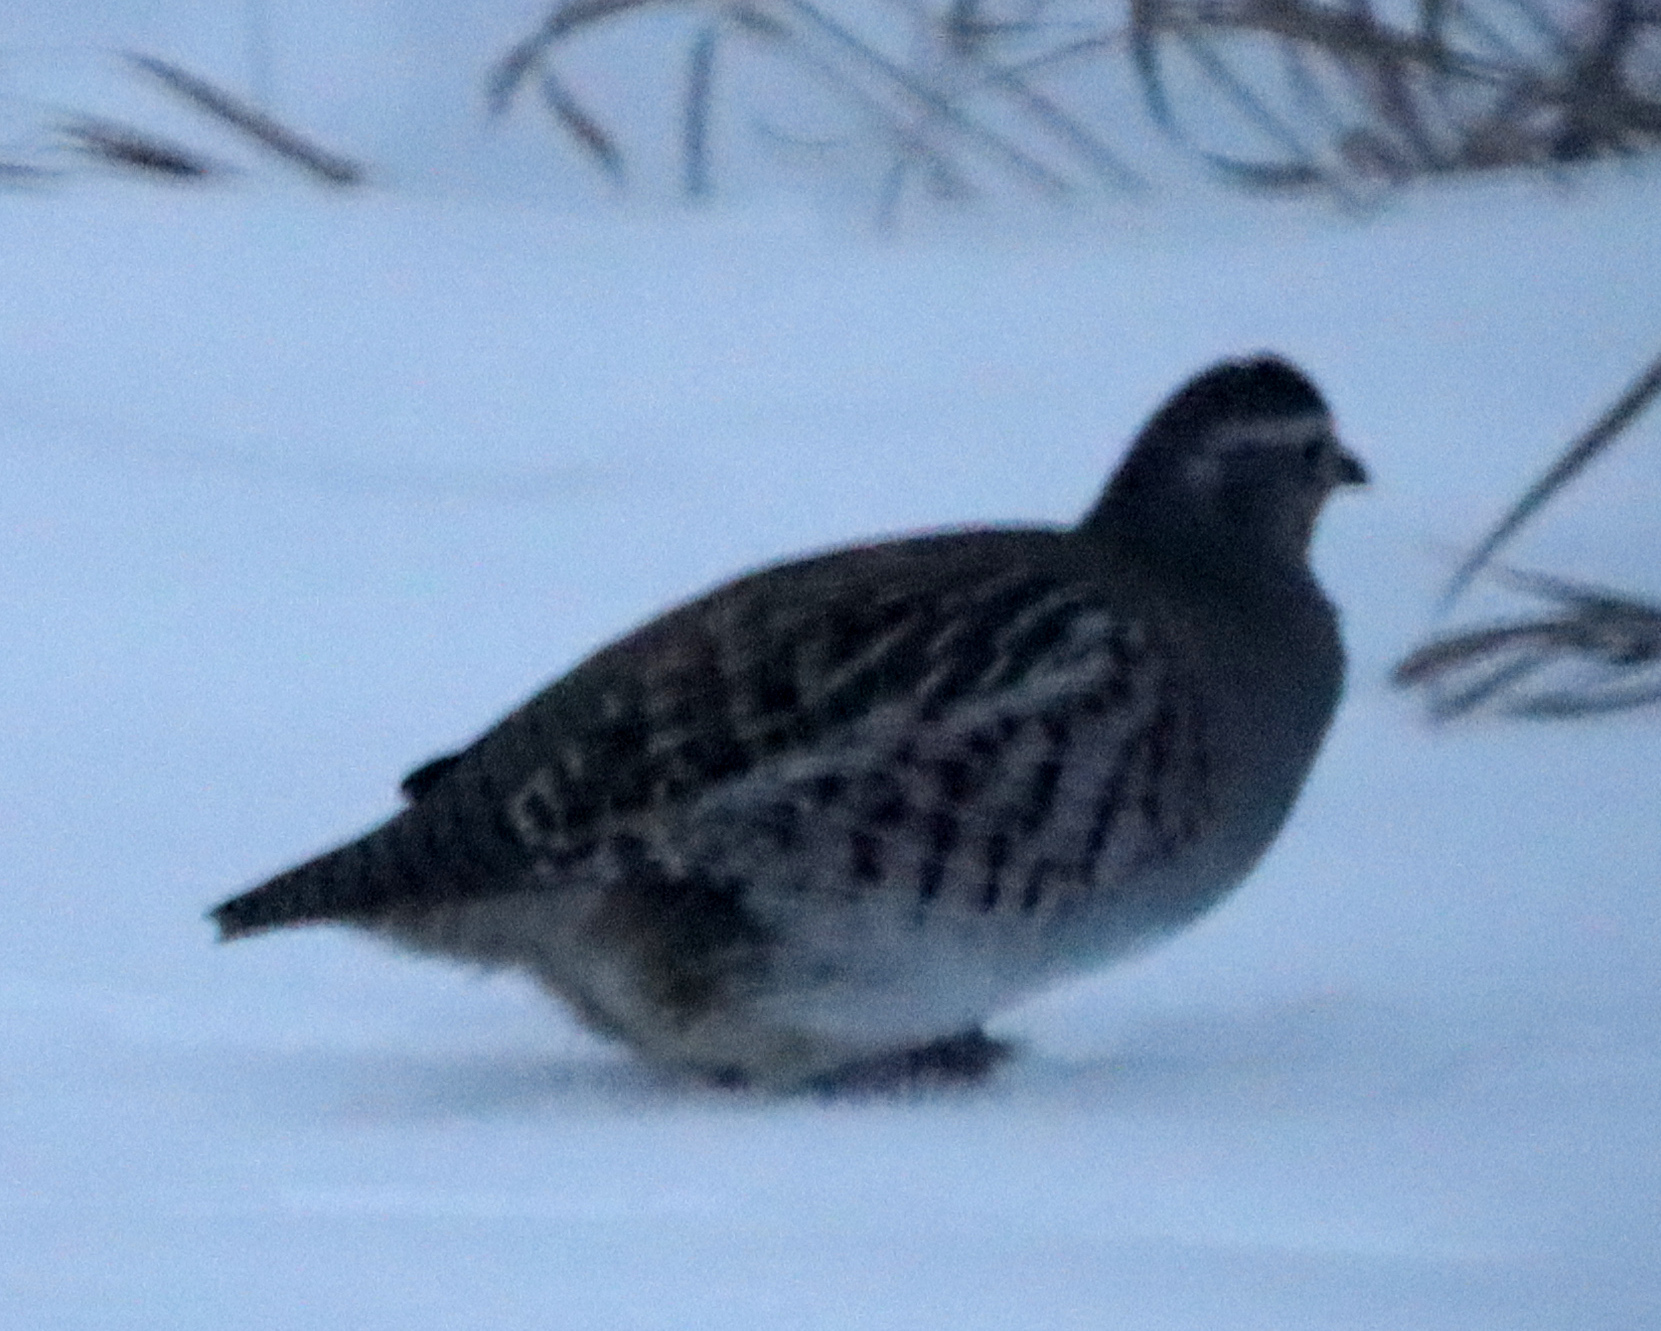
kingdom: Animalia
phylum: Chordata
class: Aves
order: Galliformes
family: Phasianidae
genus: Perdix
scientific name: Perdix perdix
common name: Grey partridge
